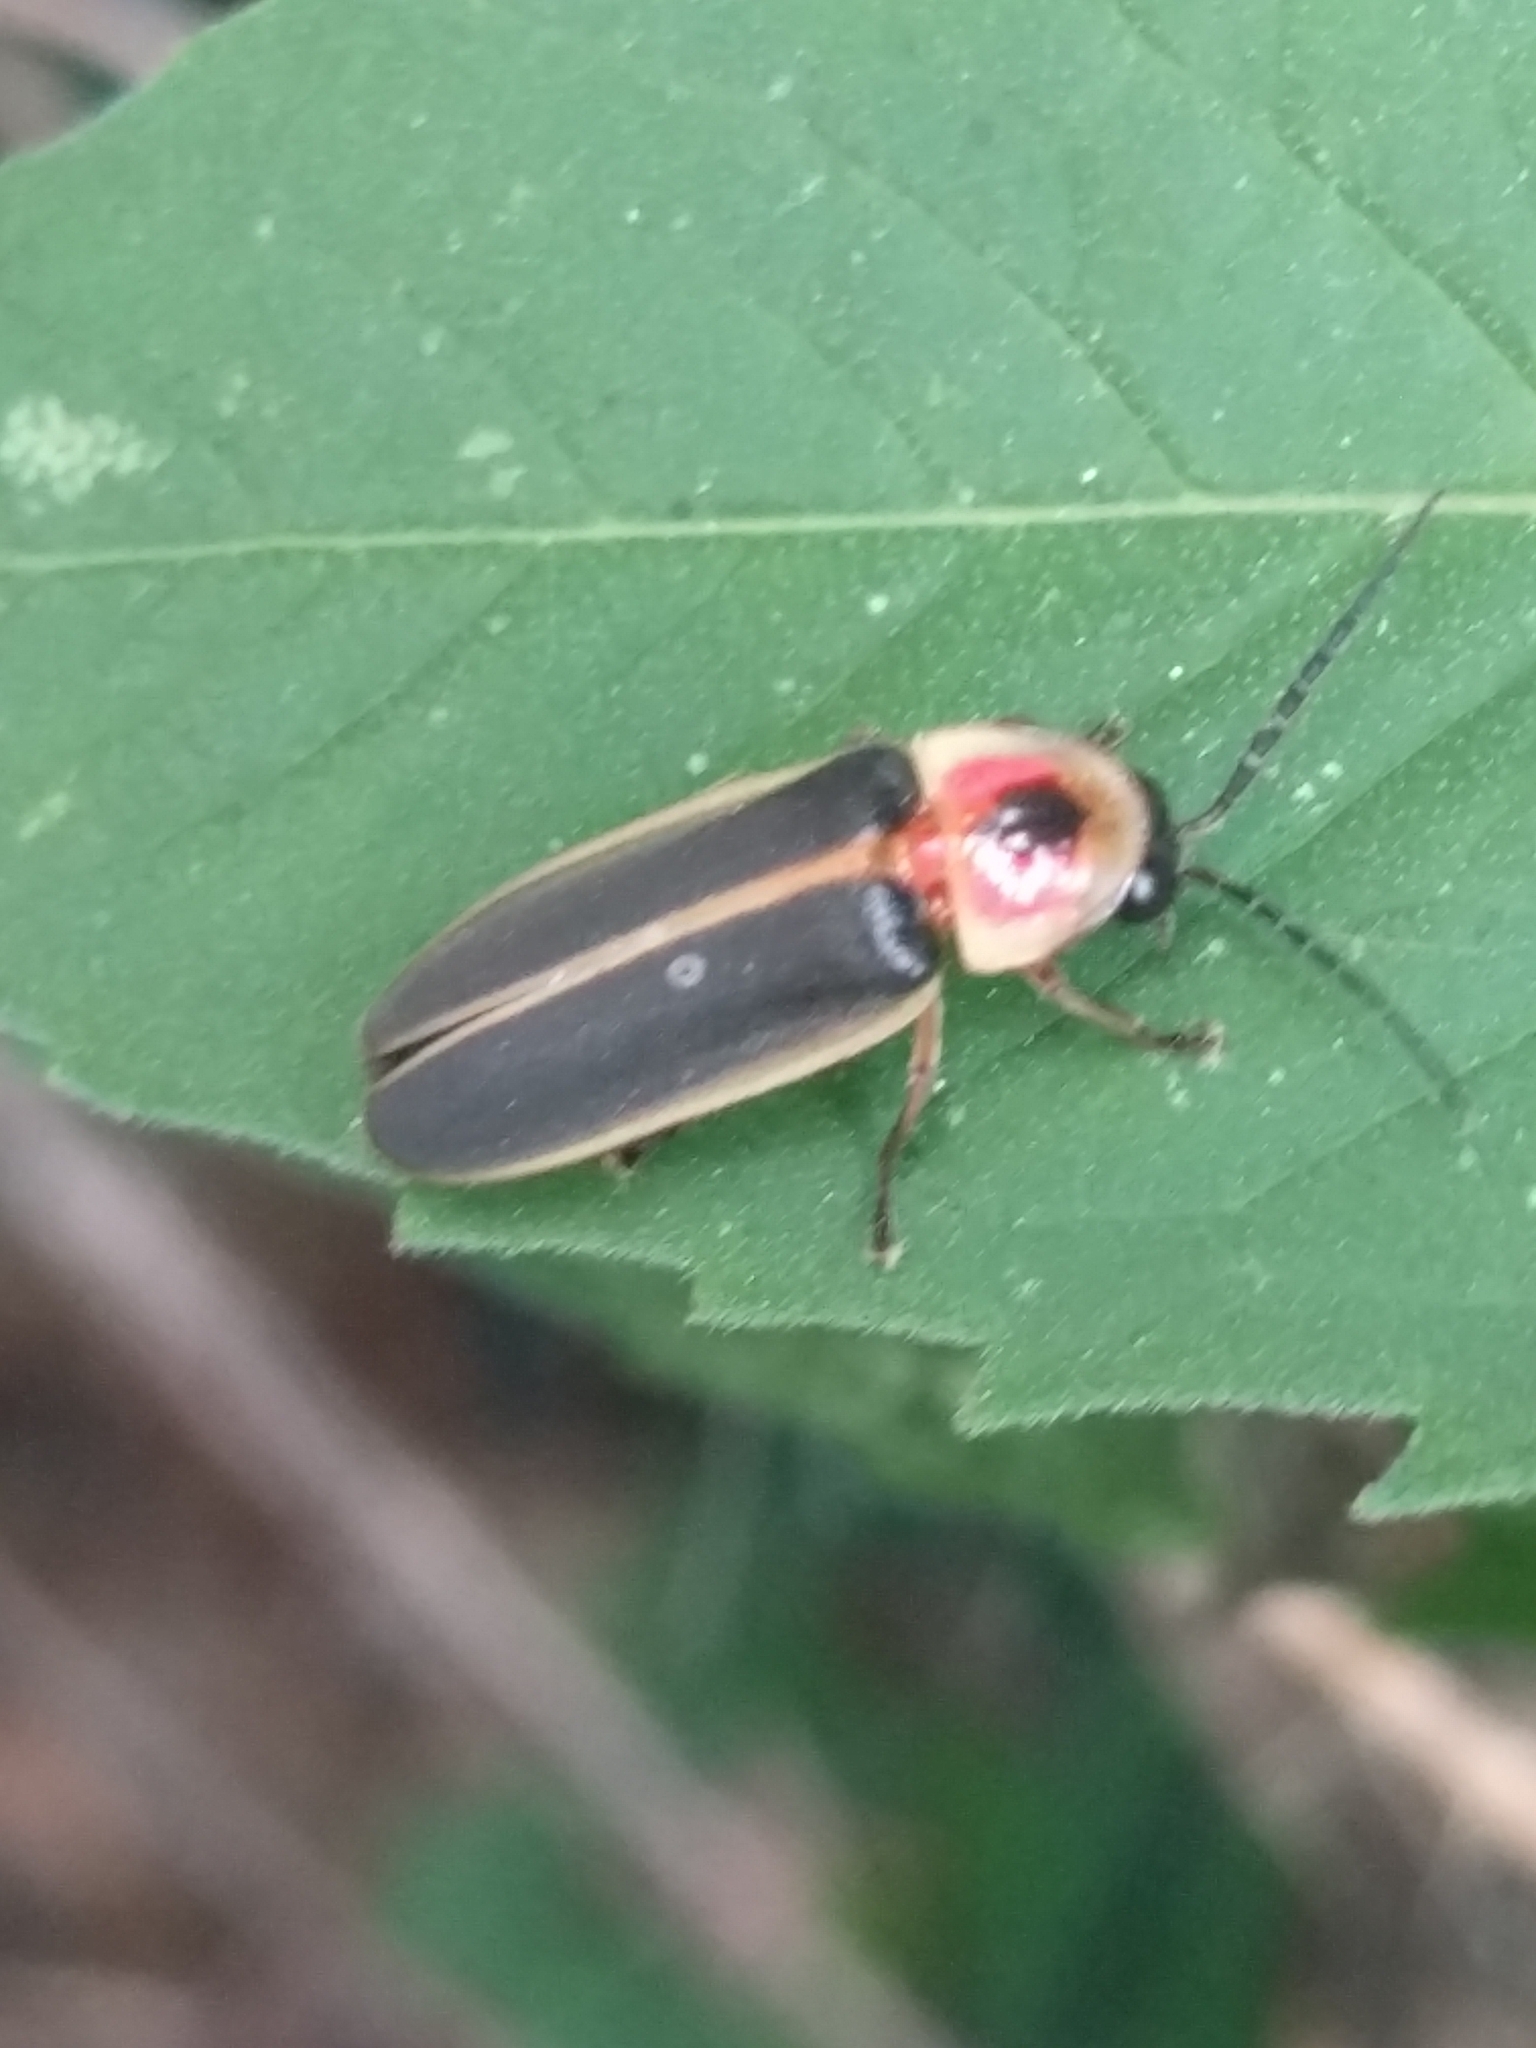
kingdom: Animalia
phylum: Arthropoda
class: Insecta
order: Coleoptera
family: Lampyridae
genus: Photinus
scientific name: Photinus pyralis
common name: Big dipper firefly
